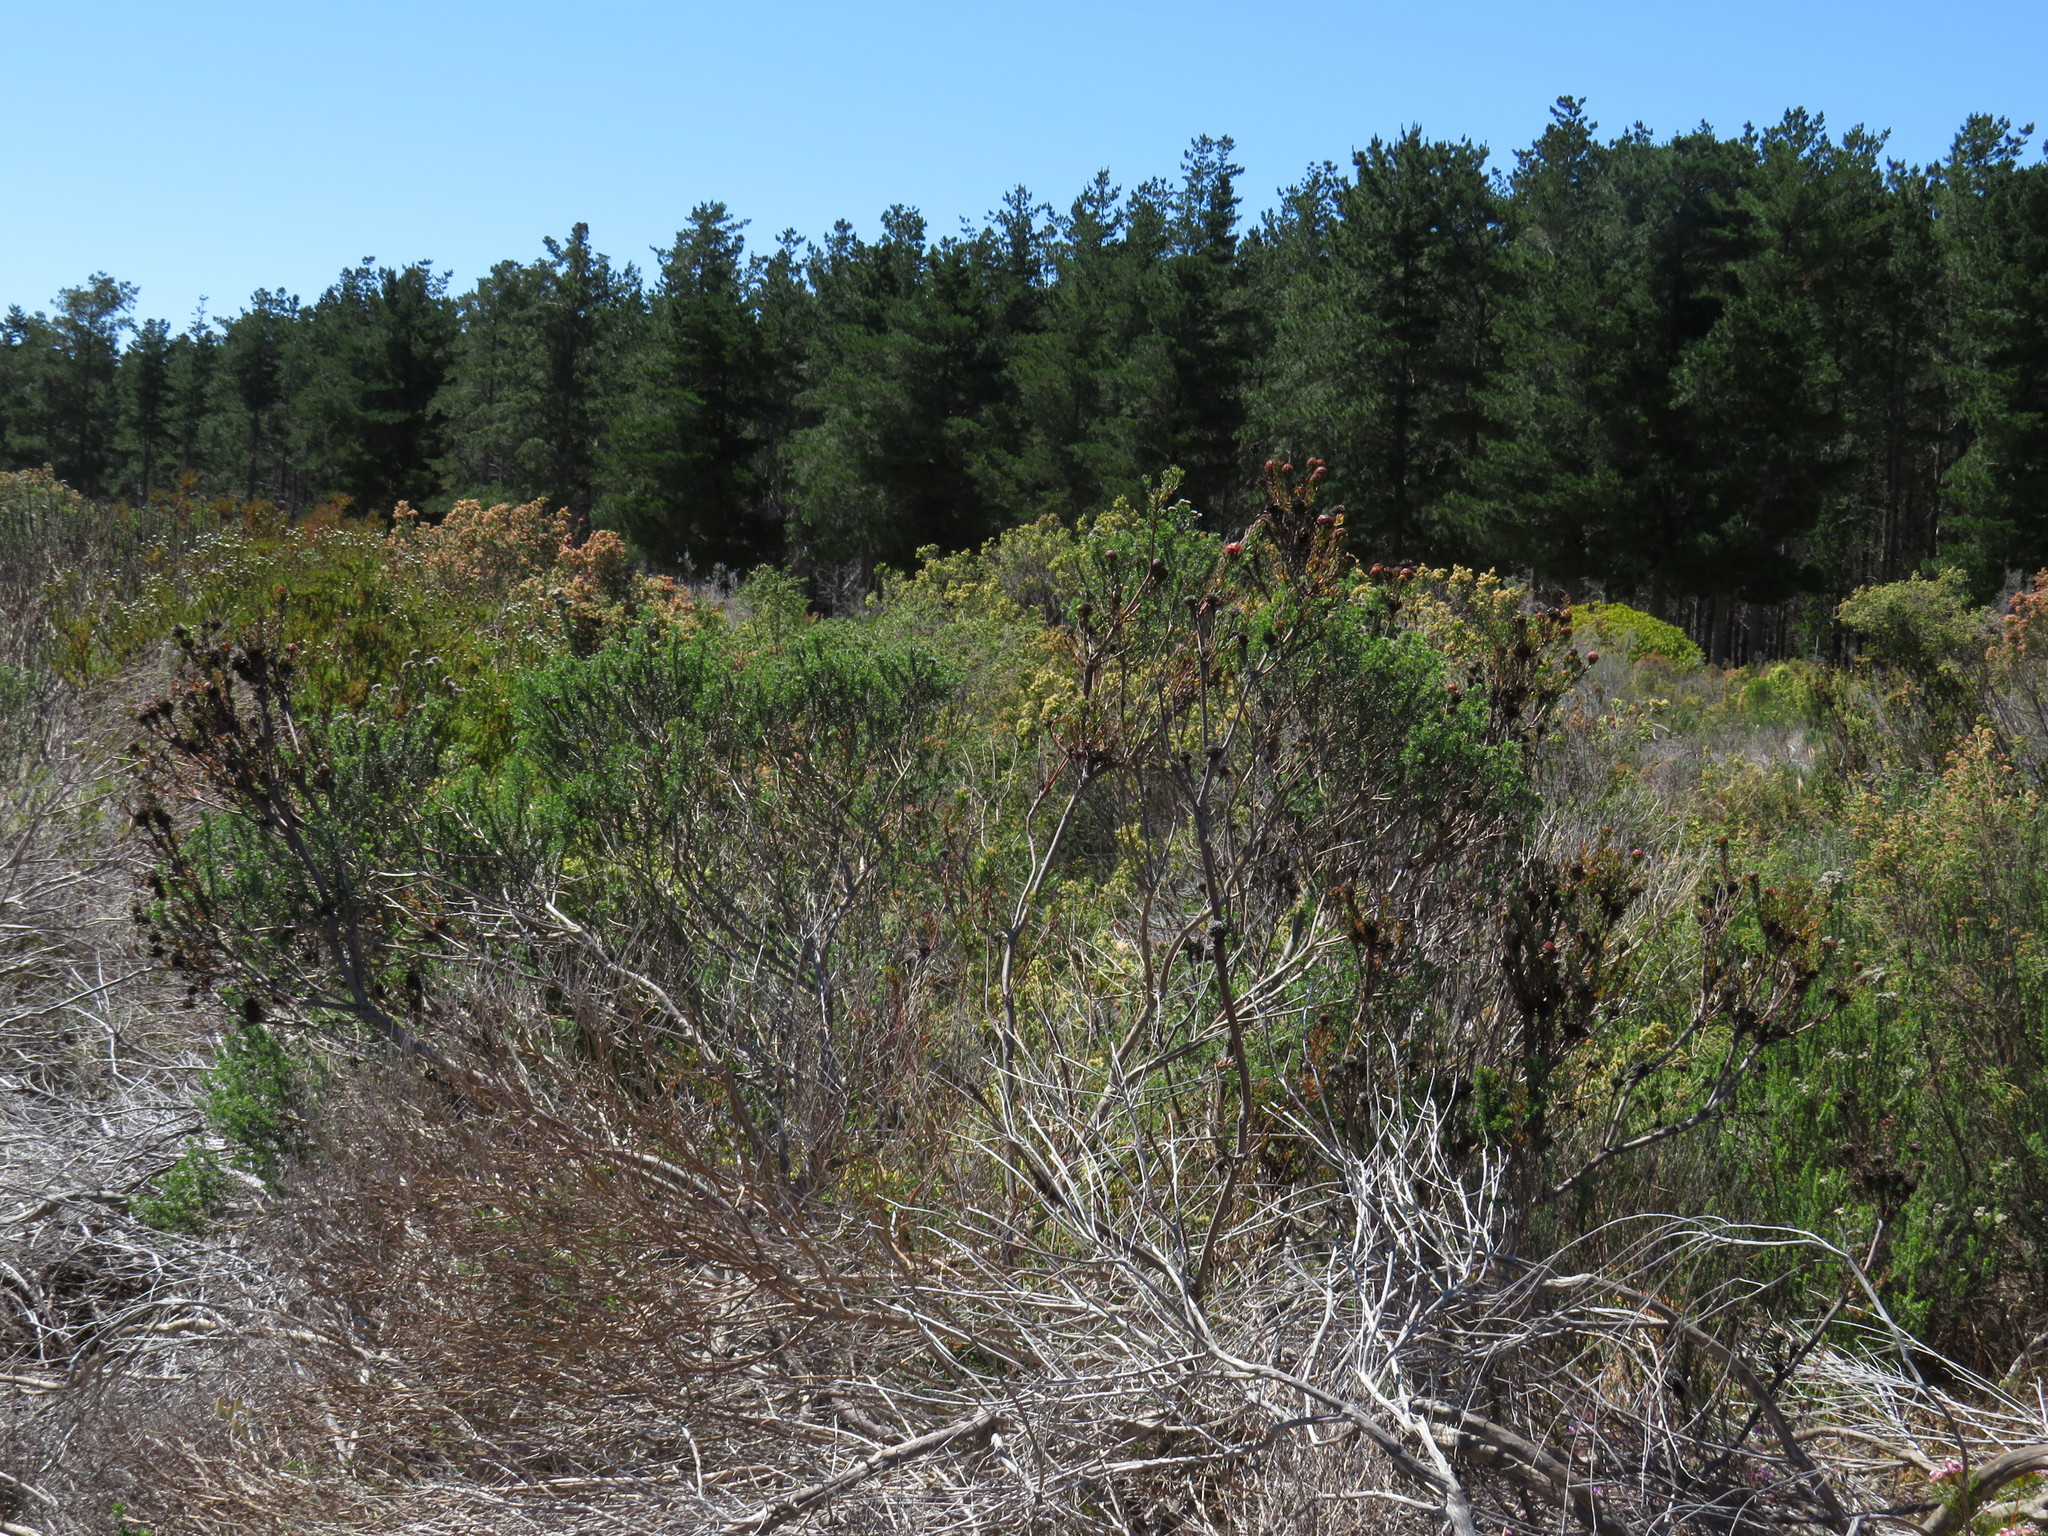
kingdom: Plantae
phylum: Tracheophyta
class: Magnoliopsida
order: Proteales
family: Proteaceae
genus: Leucadendron
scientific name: Leucadendron levisanus
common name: Cape flats conebush
